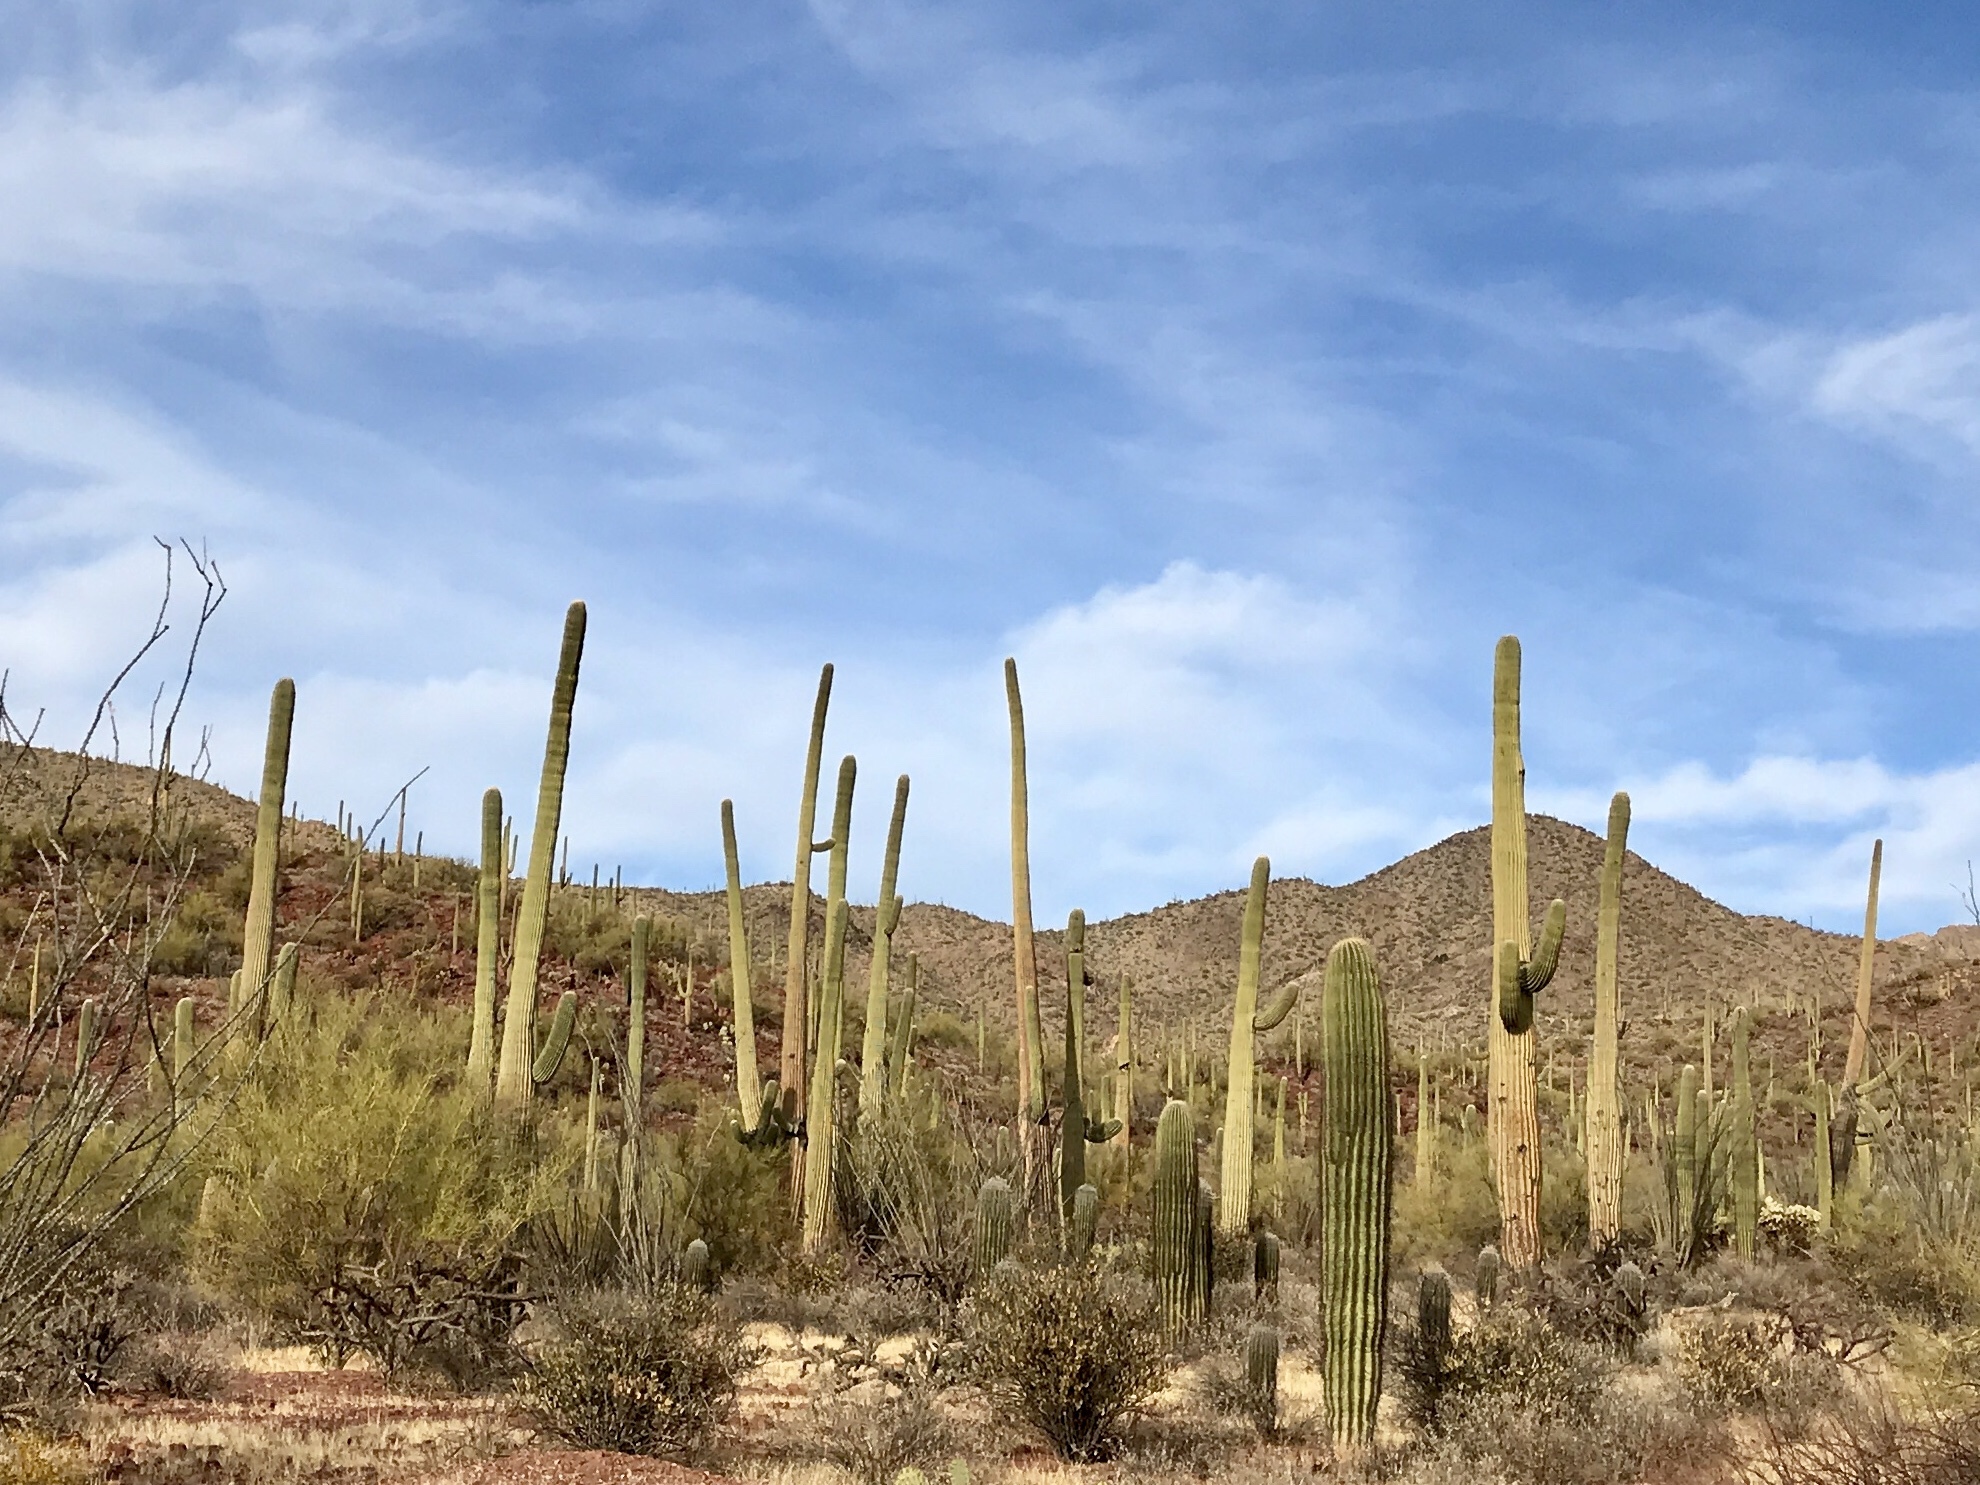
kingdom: Plantae
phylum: Tracheophyta
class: Magnoliopsida
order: Caryophyllales
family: Cactaceae
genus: Carnegiea
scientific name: Carnegiea gigantea
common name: Saguaro
